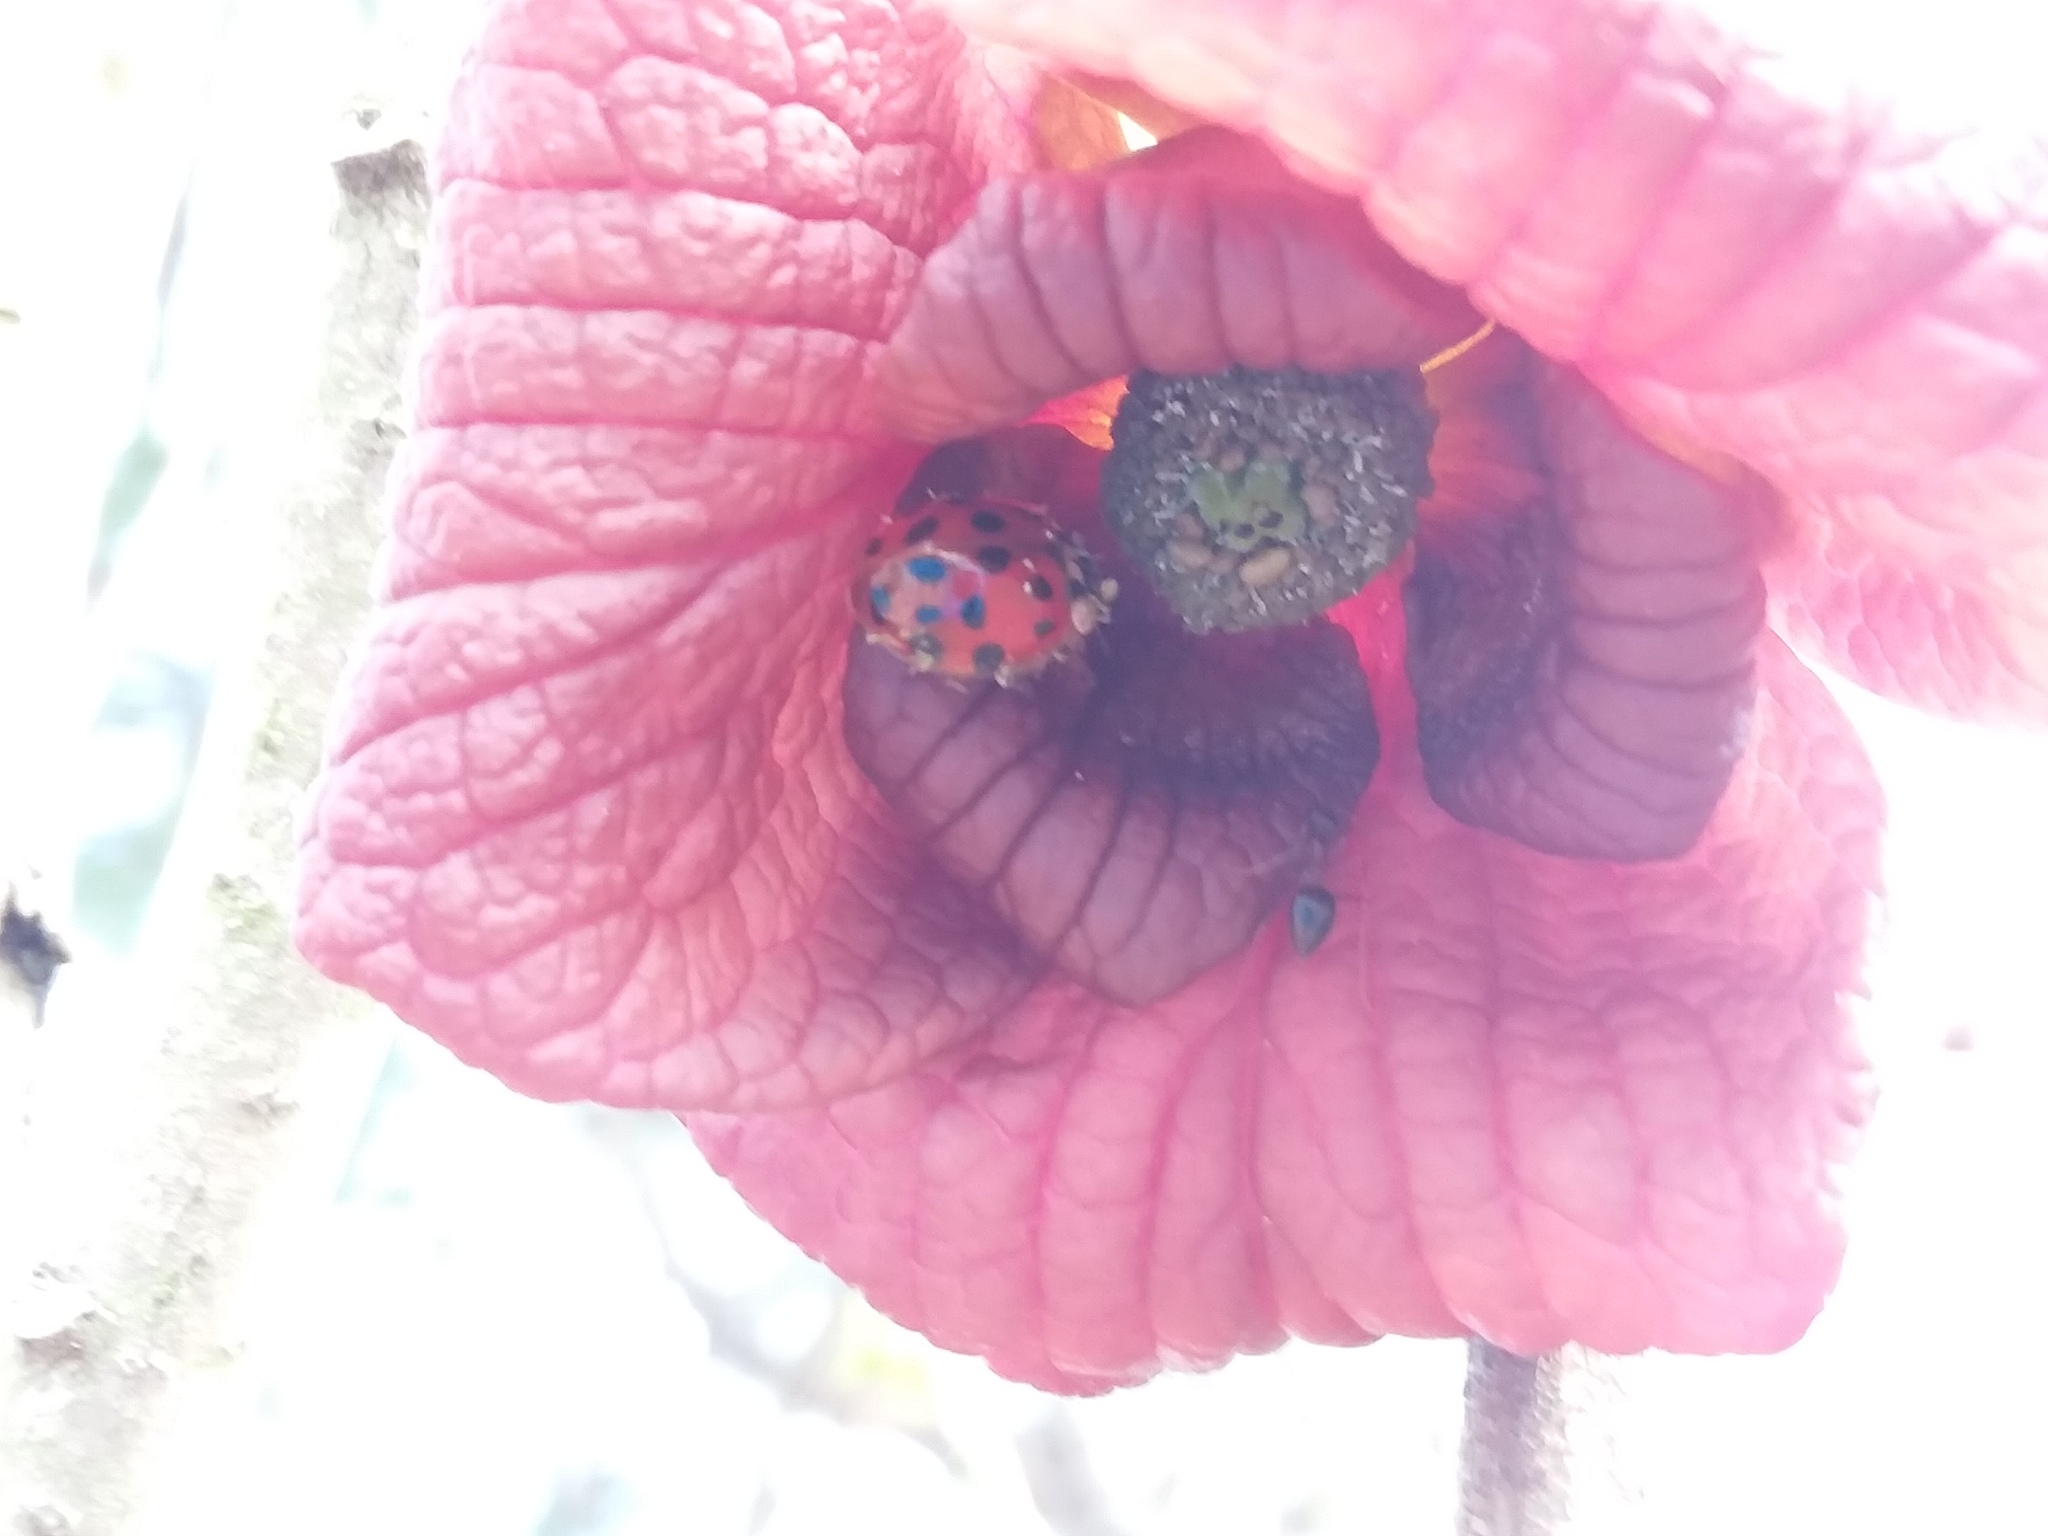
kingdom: Animalia
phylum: Arthropoda
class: Insecta
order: Coleoptera
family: Coccinellidae
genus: Harmonia
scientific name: Harmonia axyridis
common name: Harlequin ladybird
